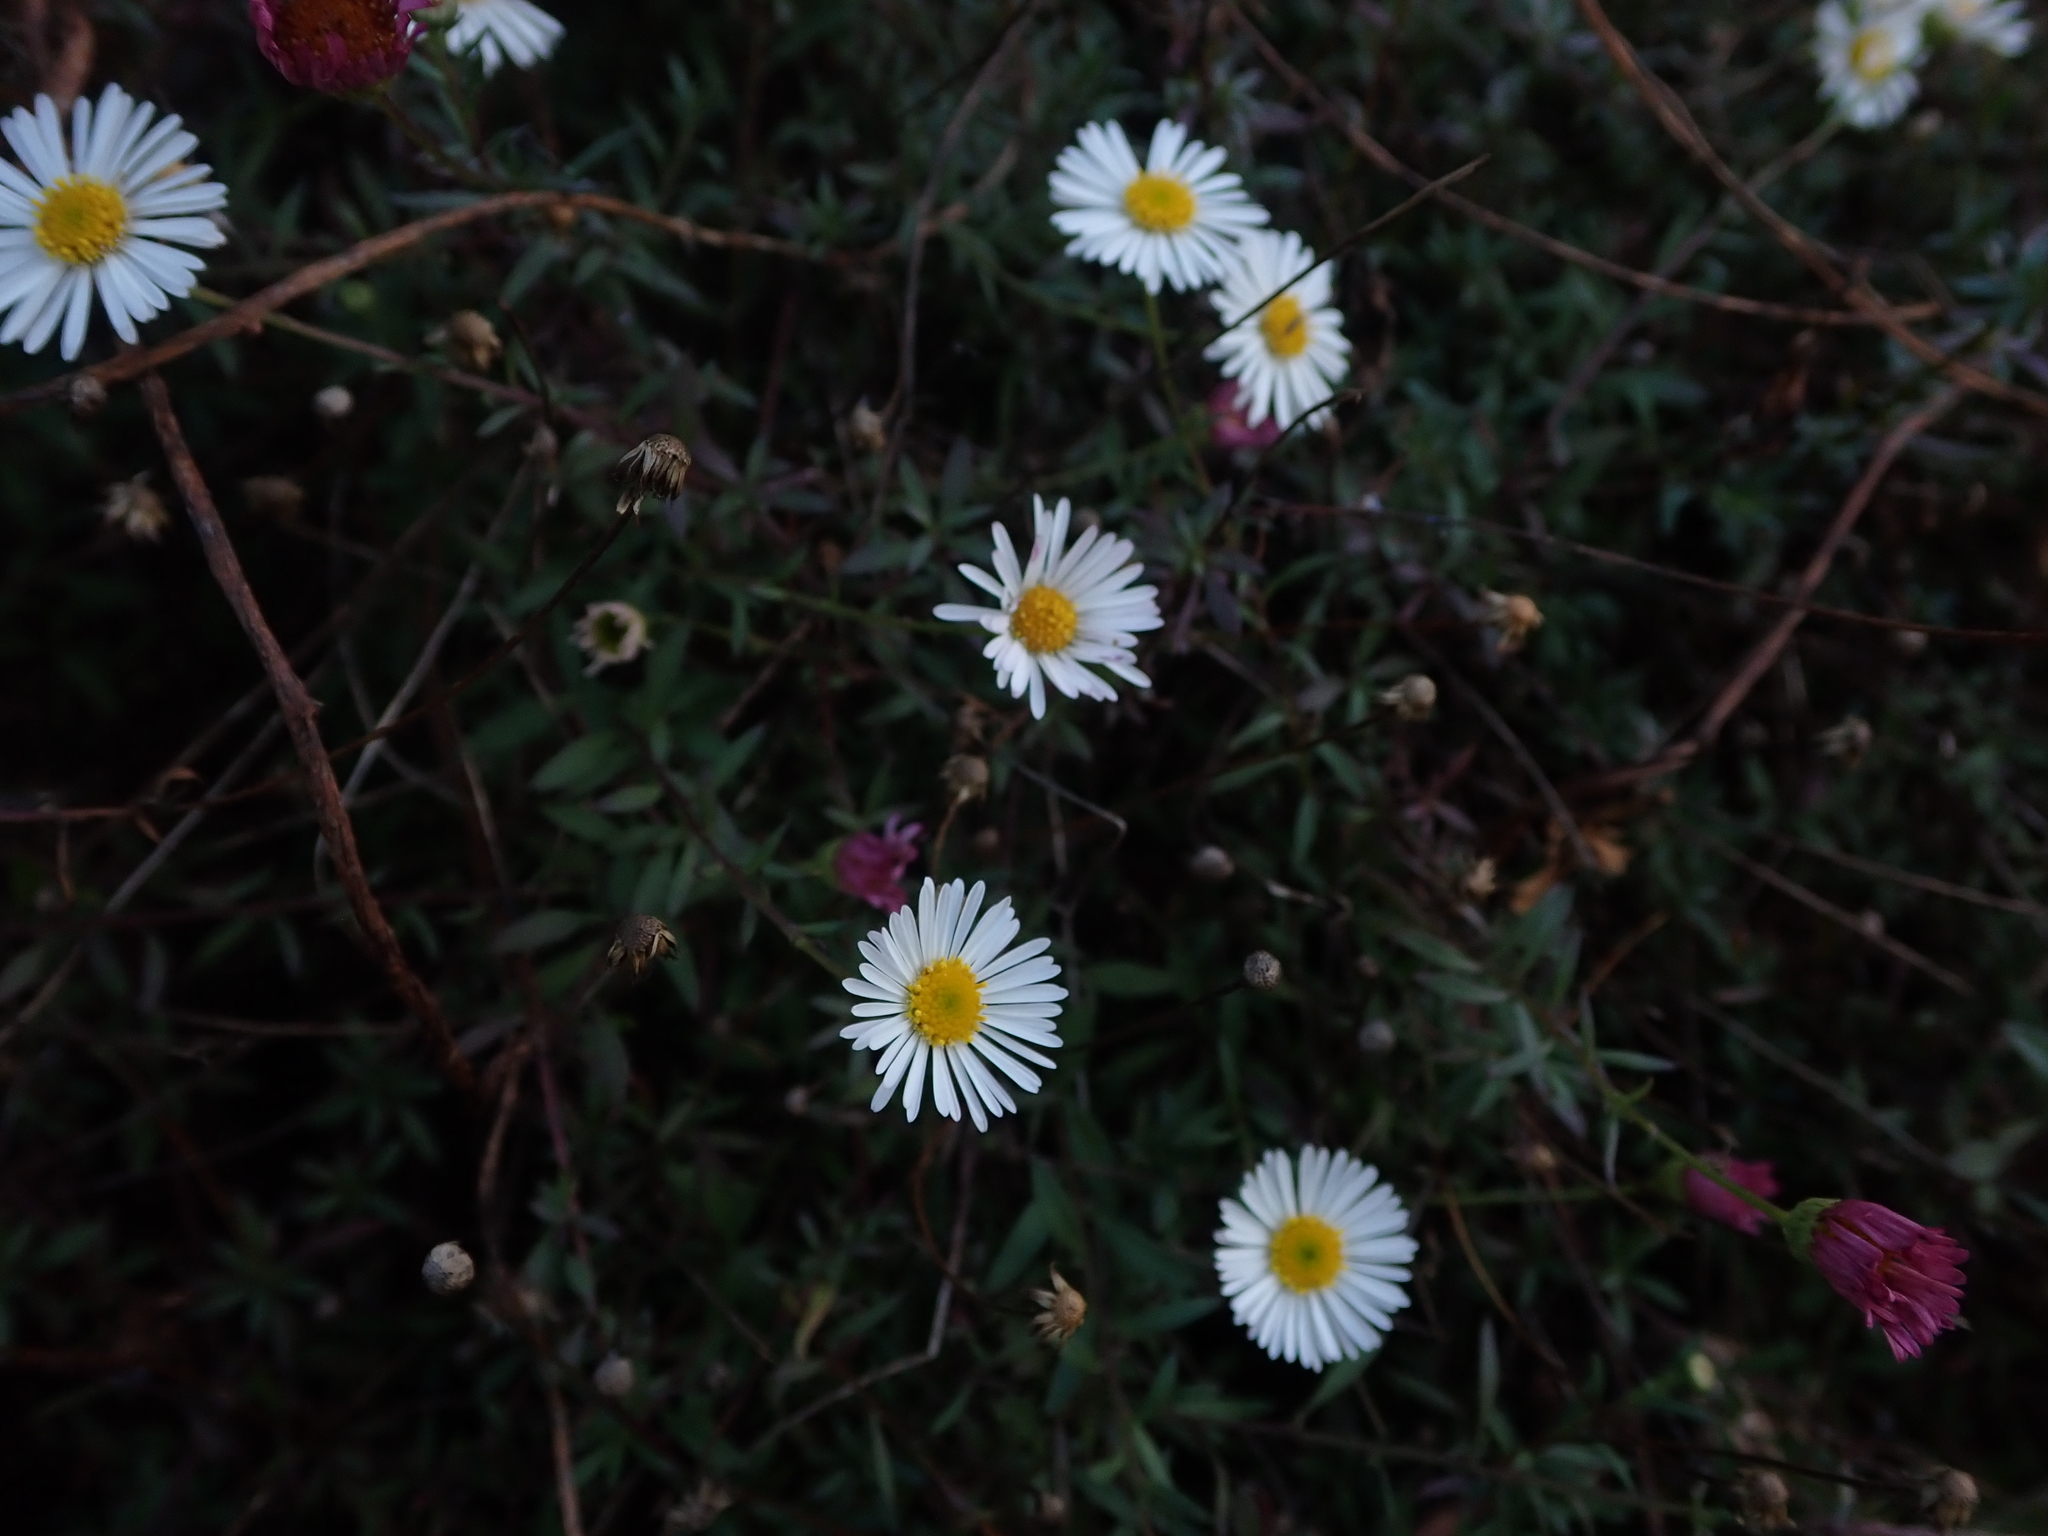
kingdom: Plantae
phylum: Tracheophyta
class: Magnoliopsida
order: Asterales
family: Asteraceae
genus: Erigeron
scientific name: Erigeron karvinskianus
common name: Mexican fleabane
